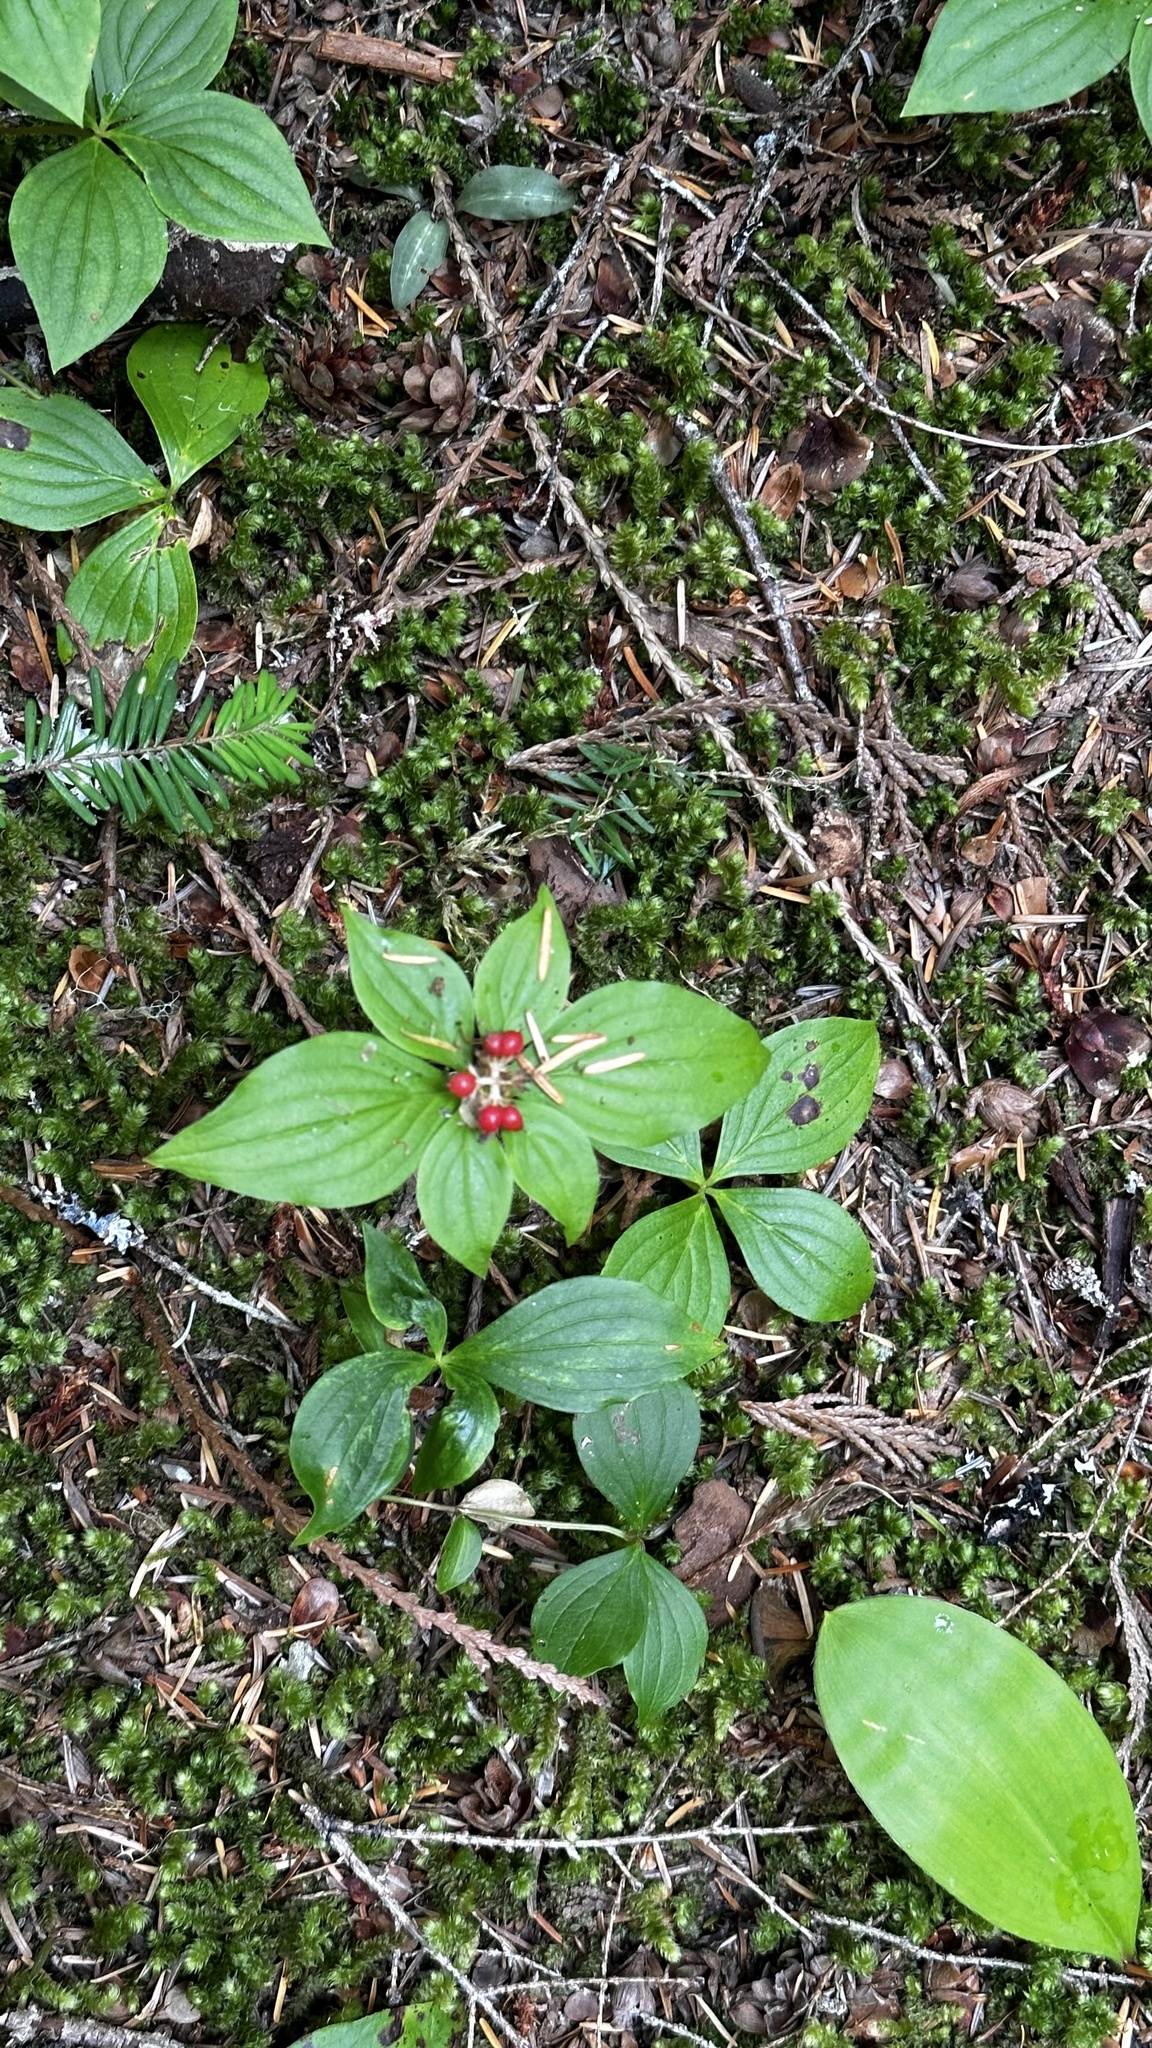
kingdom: Plantae
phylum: Tracheophyta
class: Magnoliopsida
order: Cornales
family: Cornaceae
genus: Cornus
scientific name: Cornus canadensis
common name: Creeping dogwood
